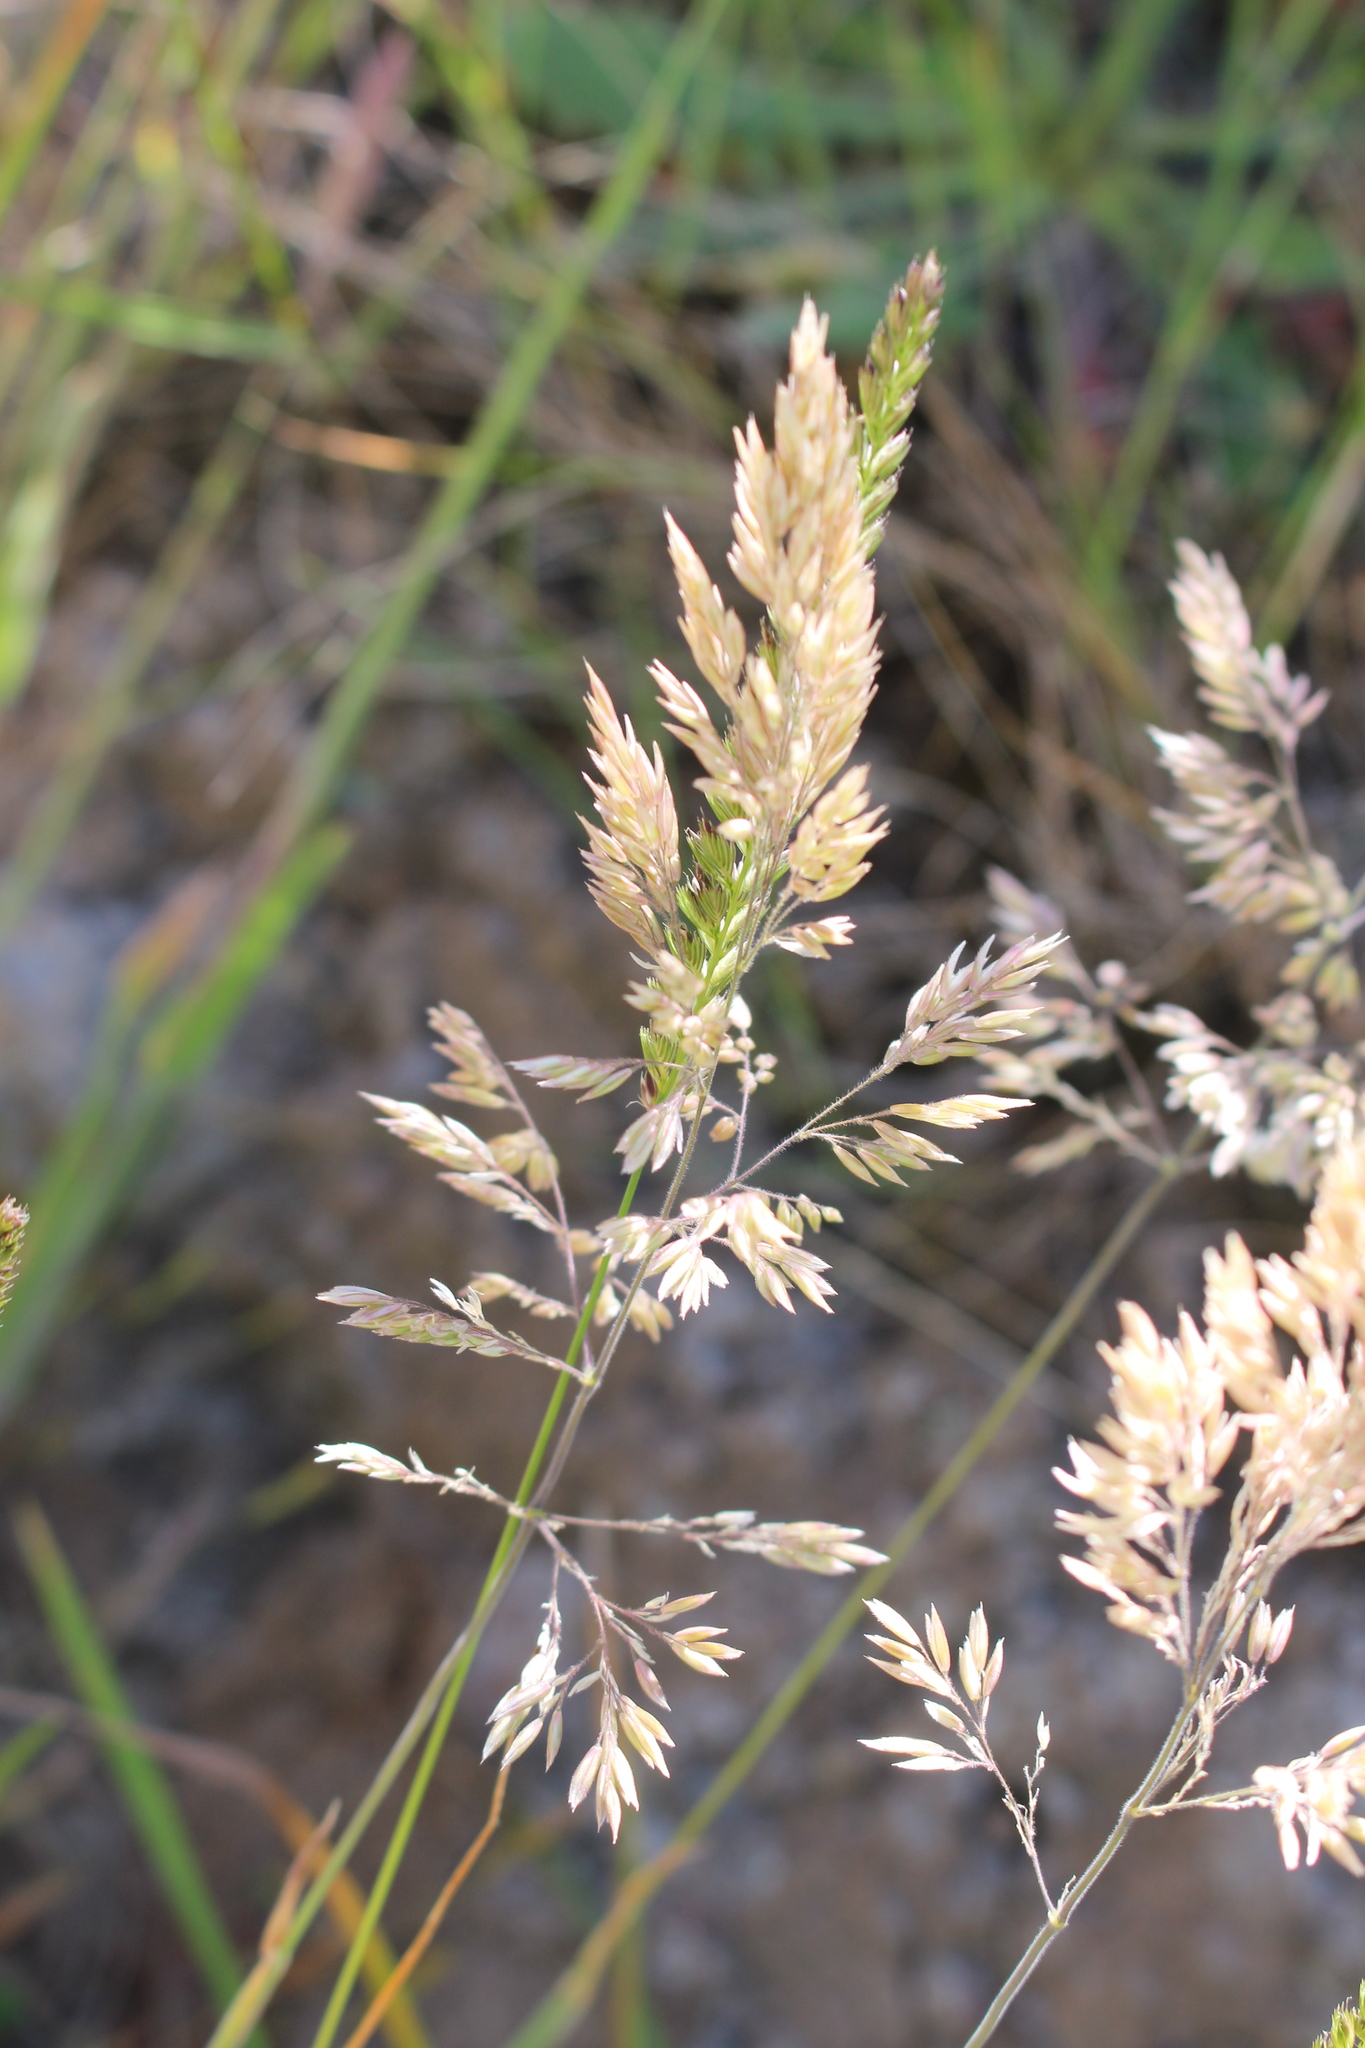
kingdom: Plantae
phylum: Tracheophyta
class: Liliopsida
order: Poales
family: Poaceae
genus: Holcus
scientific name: Holcus lanatus
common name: Yorkshire-fog
